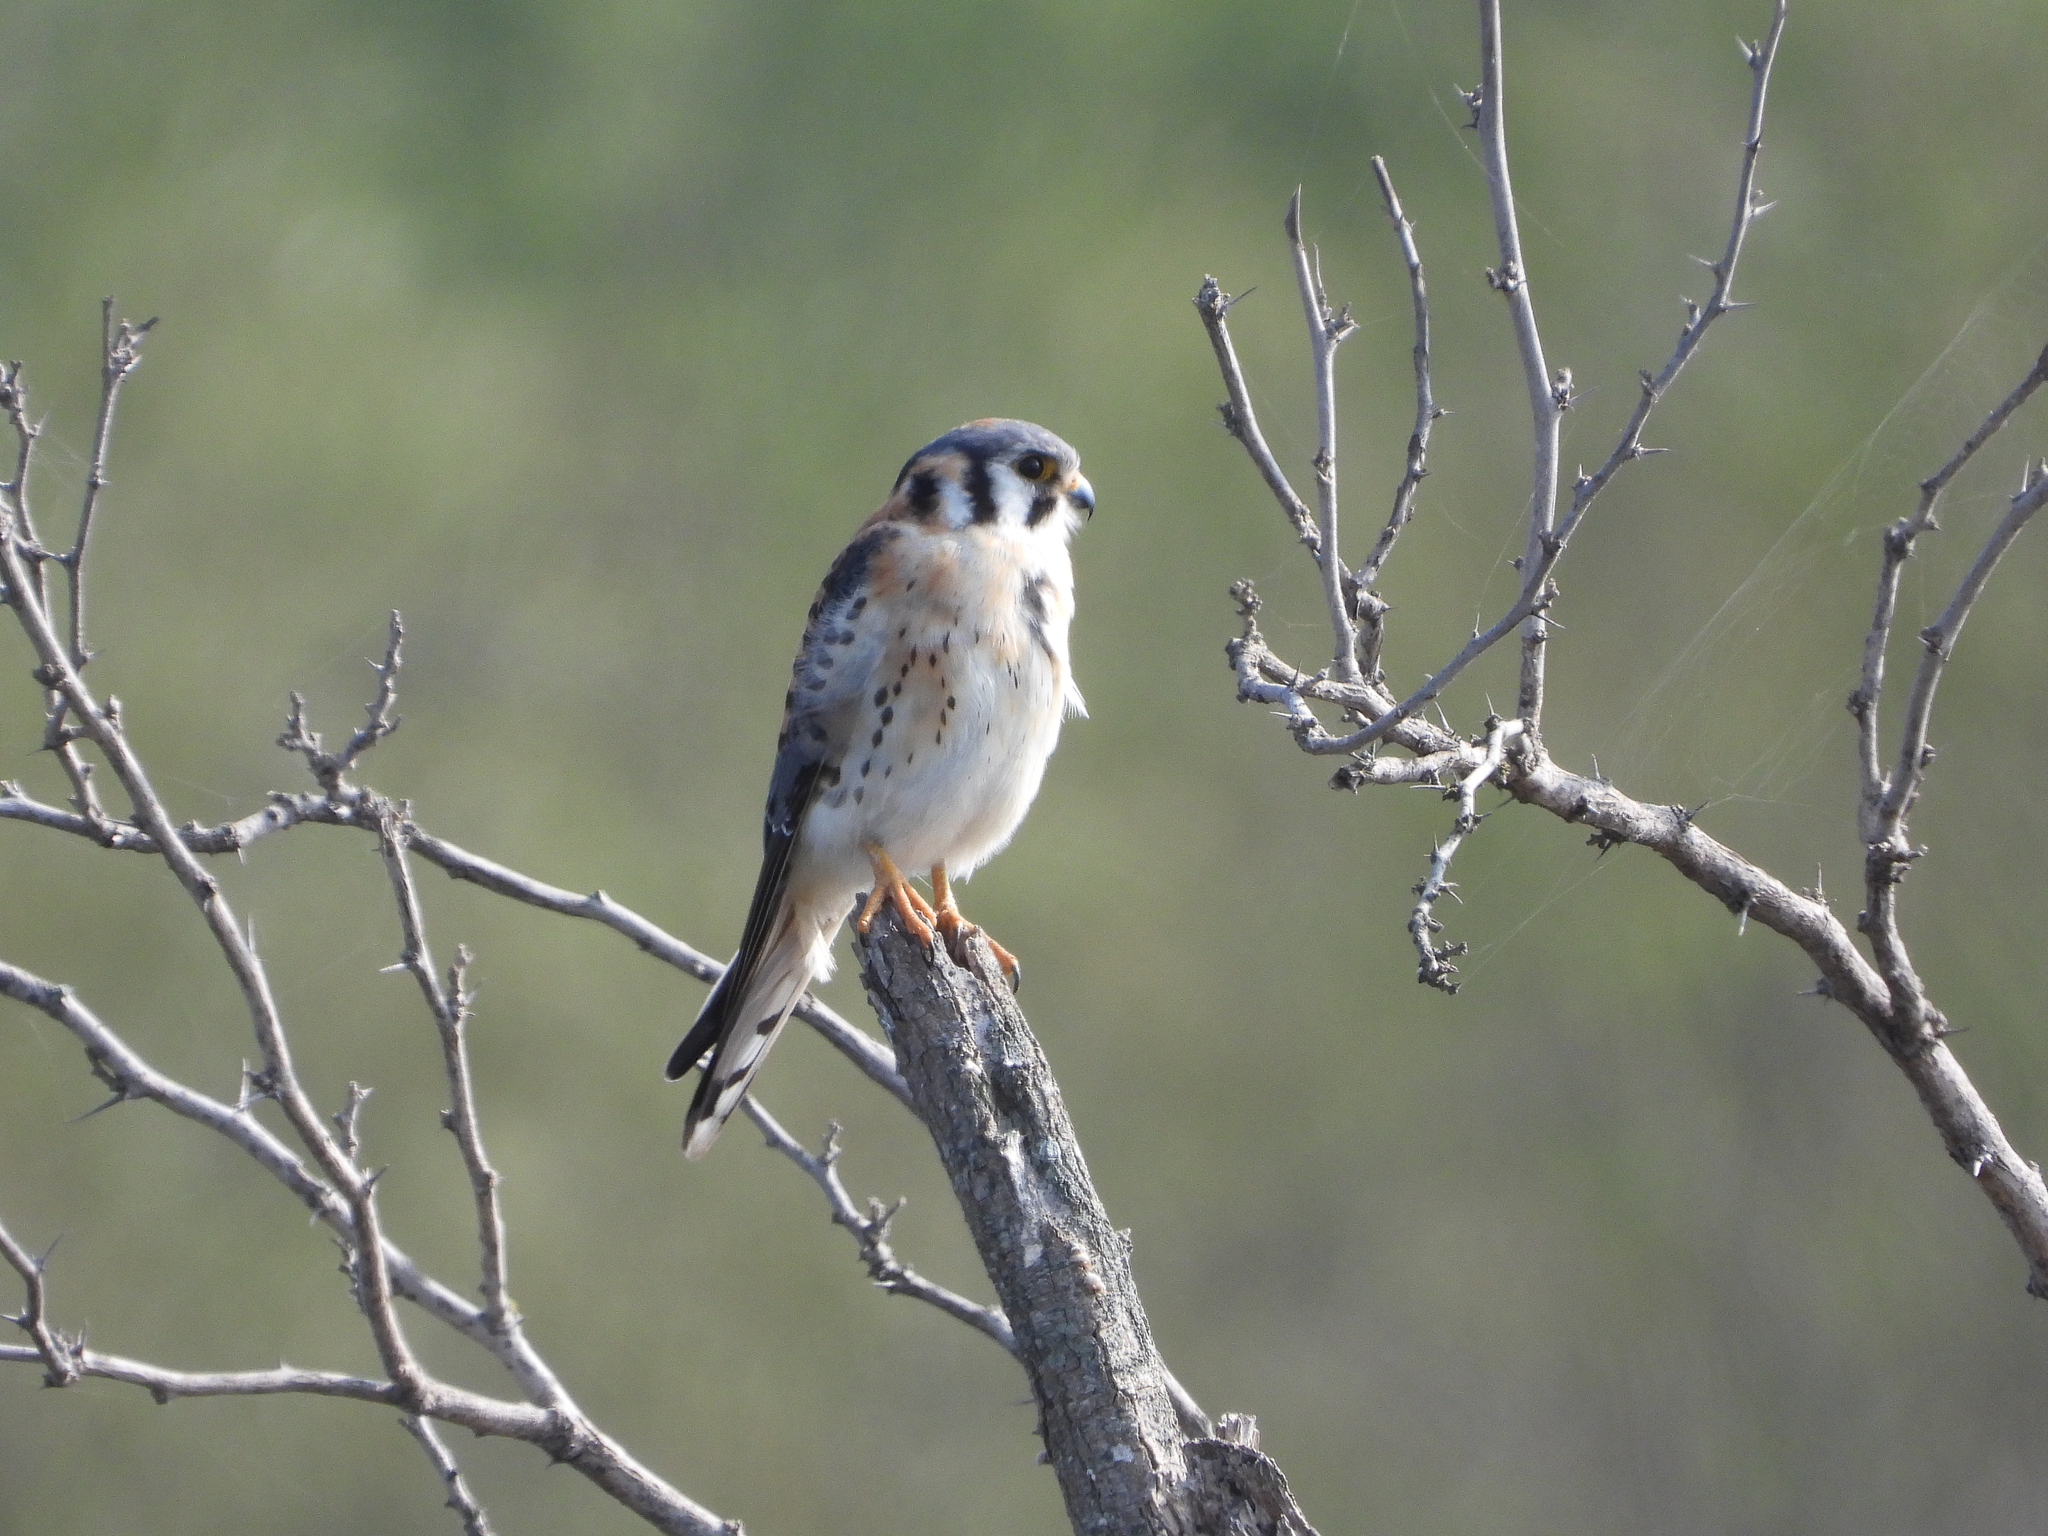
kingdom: Animalia
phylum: Chordata
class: Aves
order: Falconiformes
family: Falconidae
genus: Falco
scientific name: Falco sparverius
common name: American kestrel
